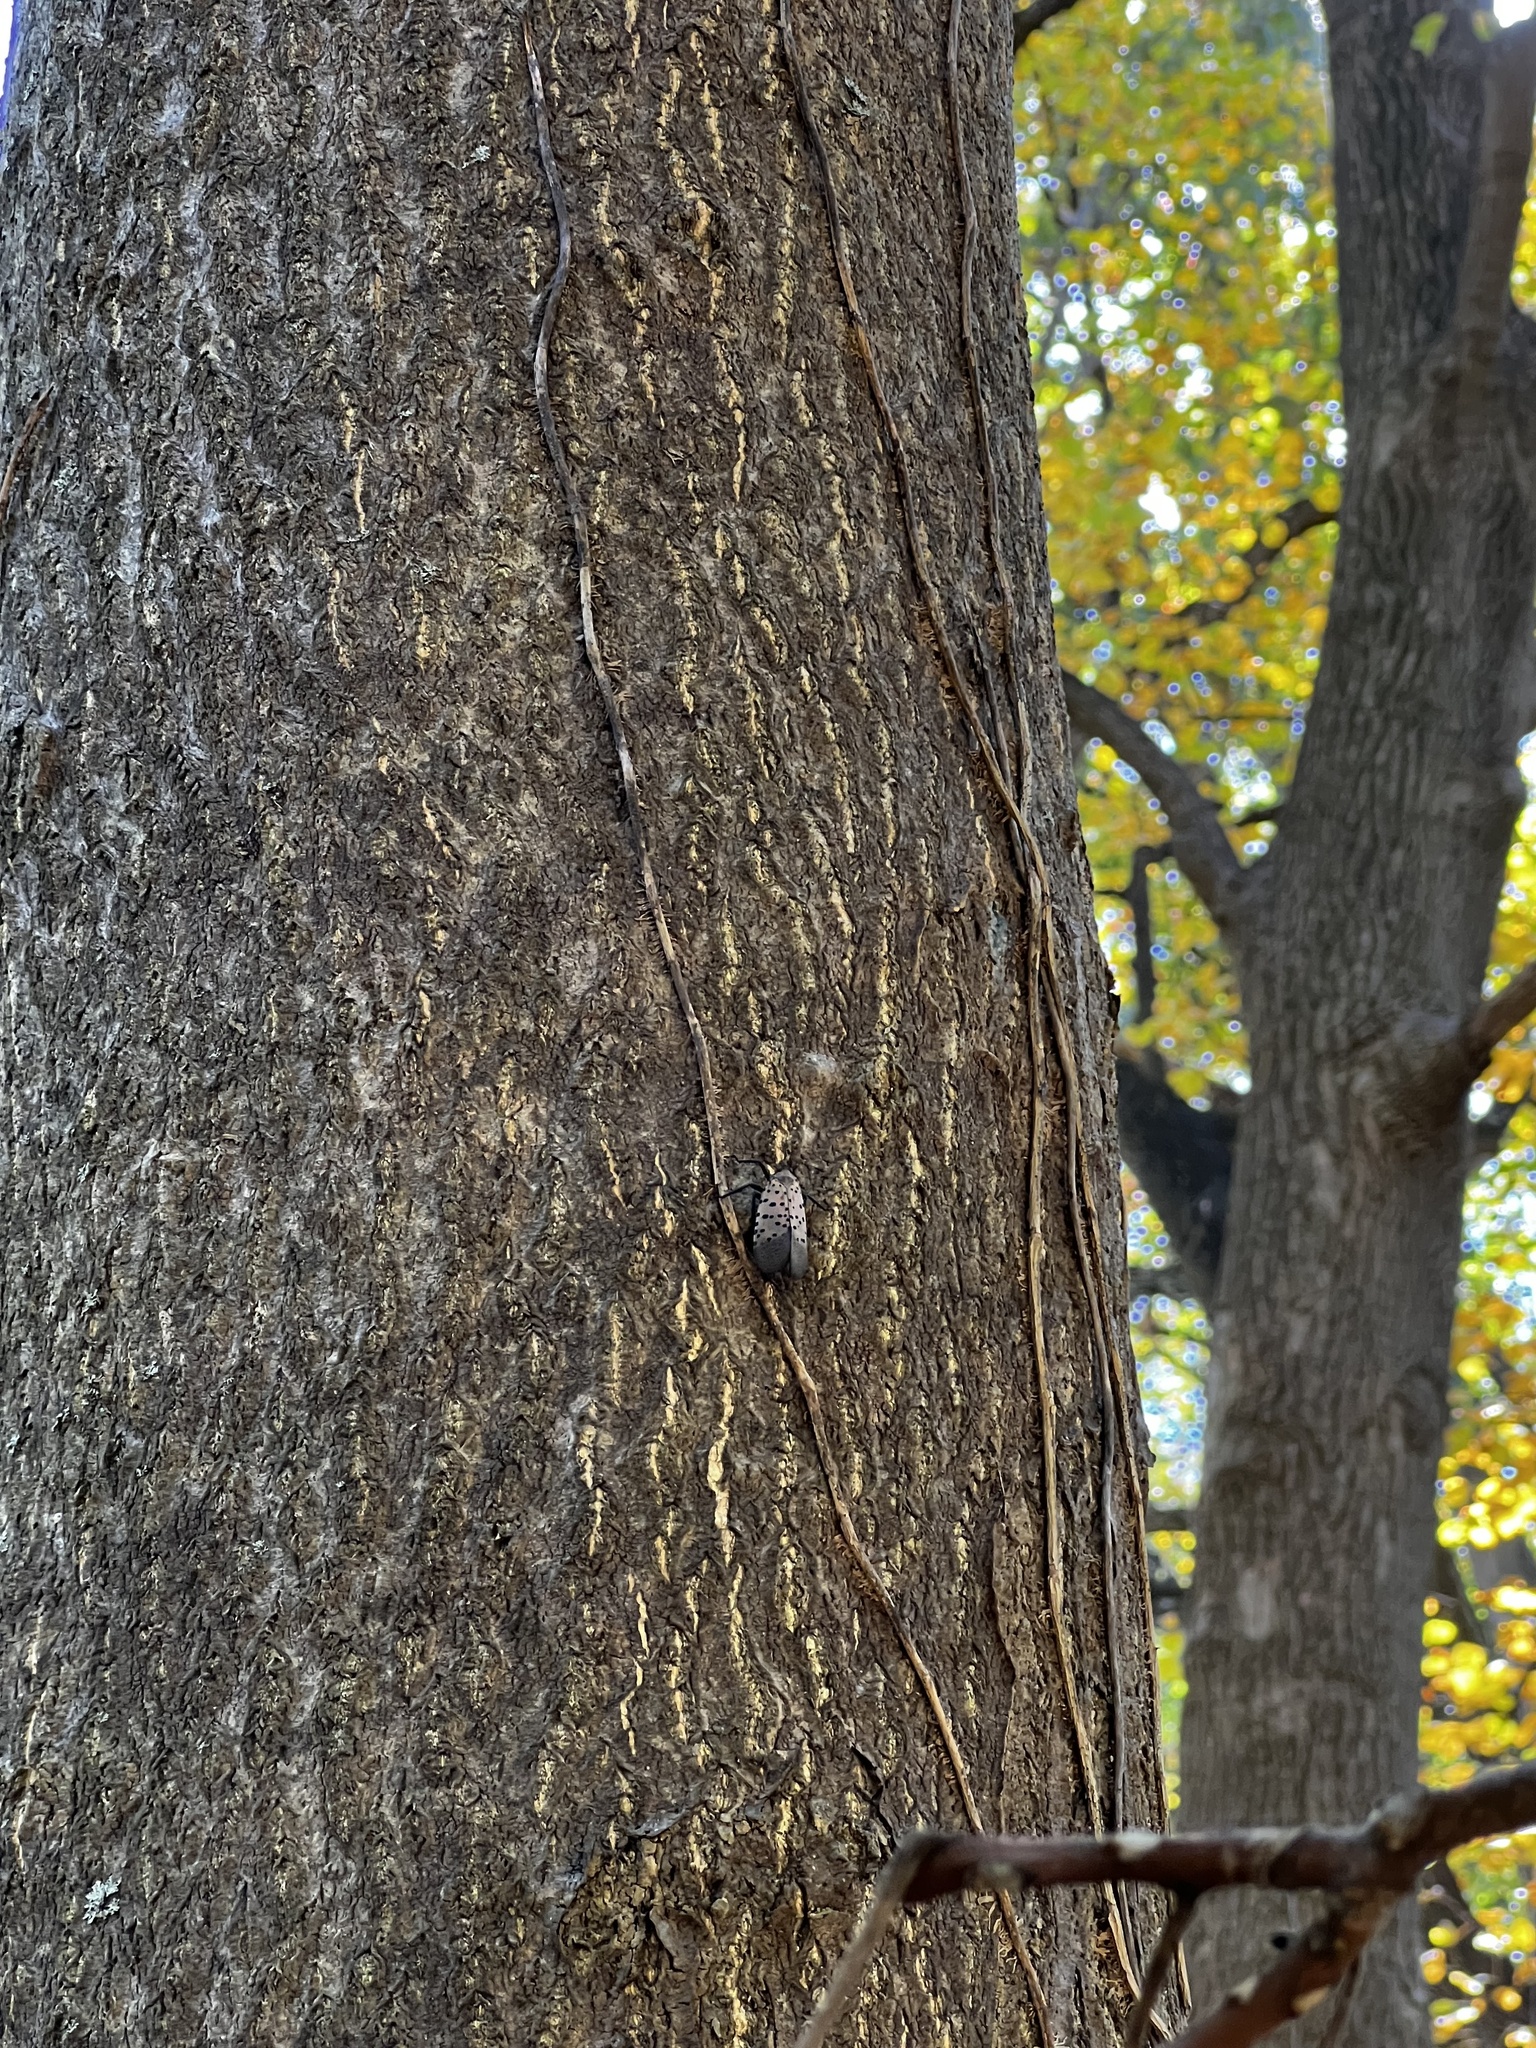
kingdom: Animalia
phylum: Arthropoda
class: Insecta
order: Hemiptera
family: Fulgoridae
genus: Lycorma
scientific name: Lycorma delicatula
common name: Spotted lanternfly
